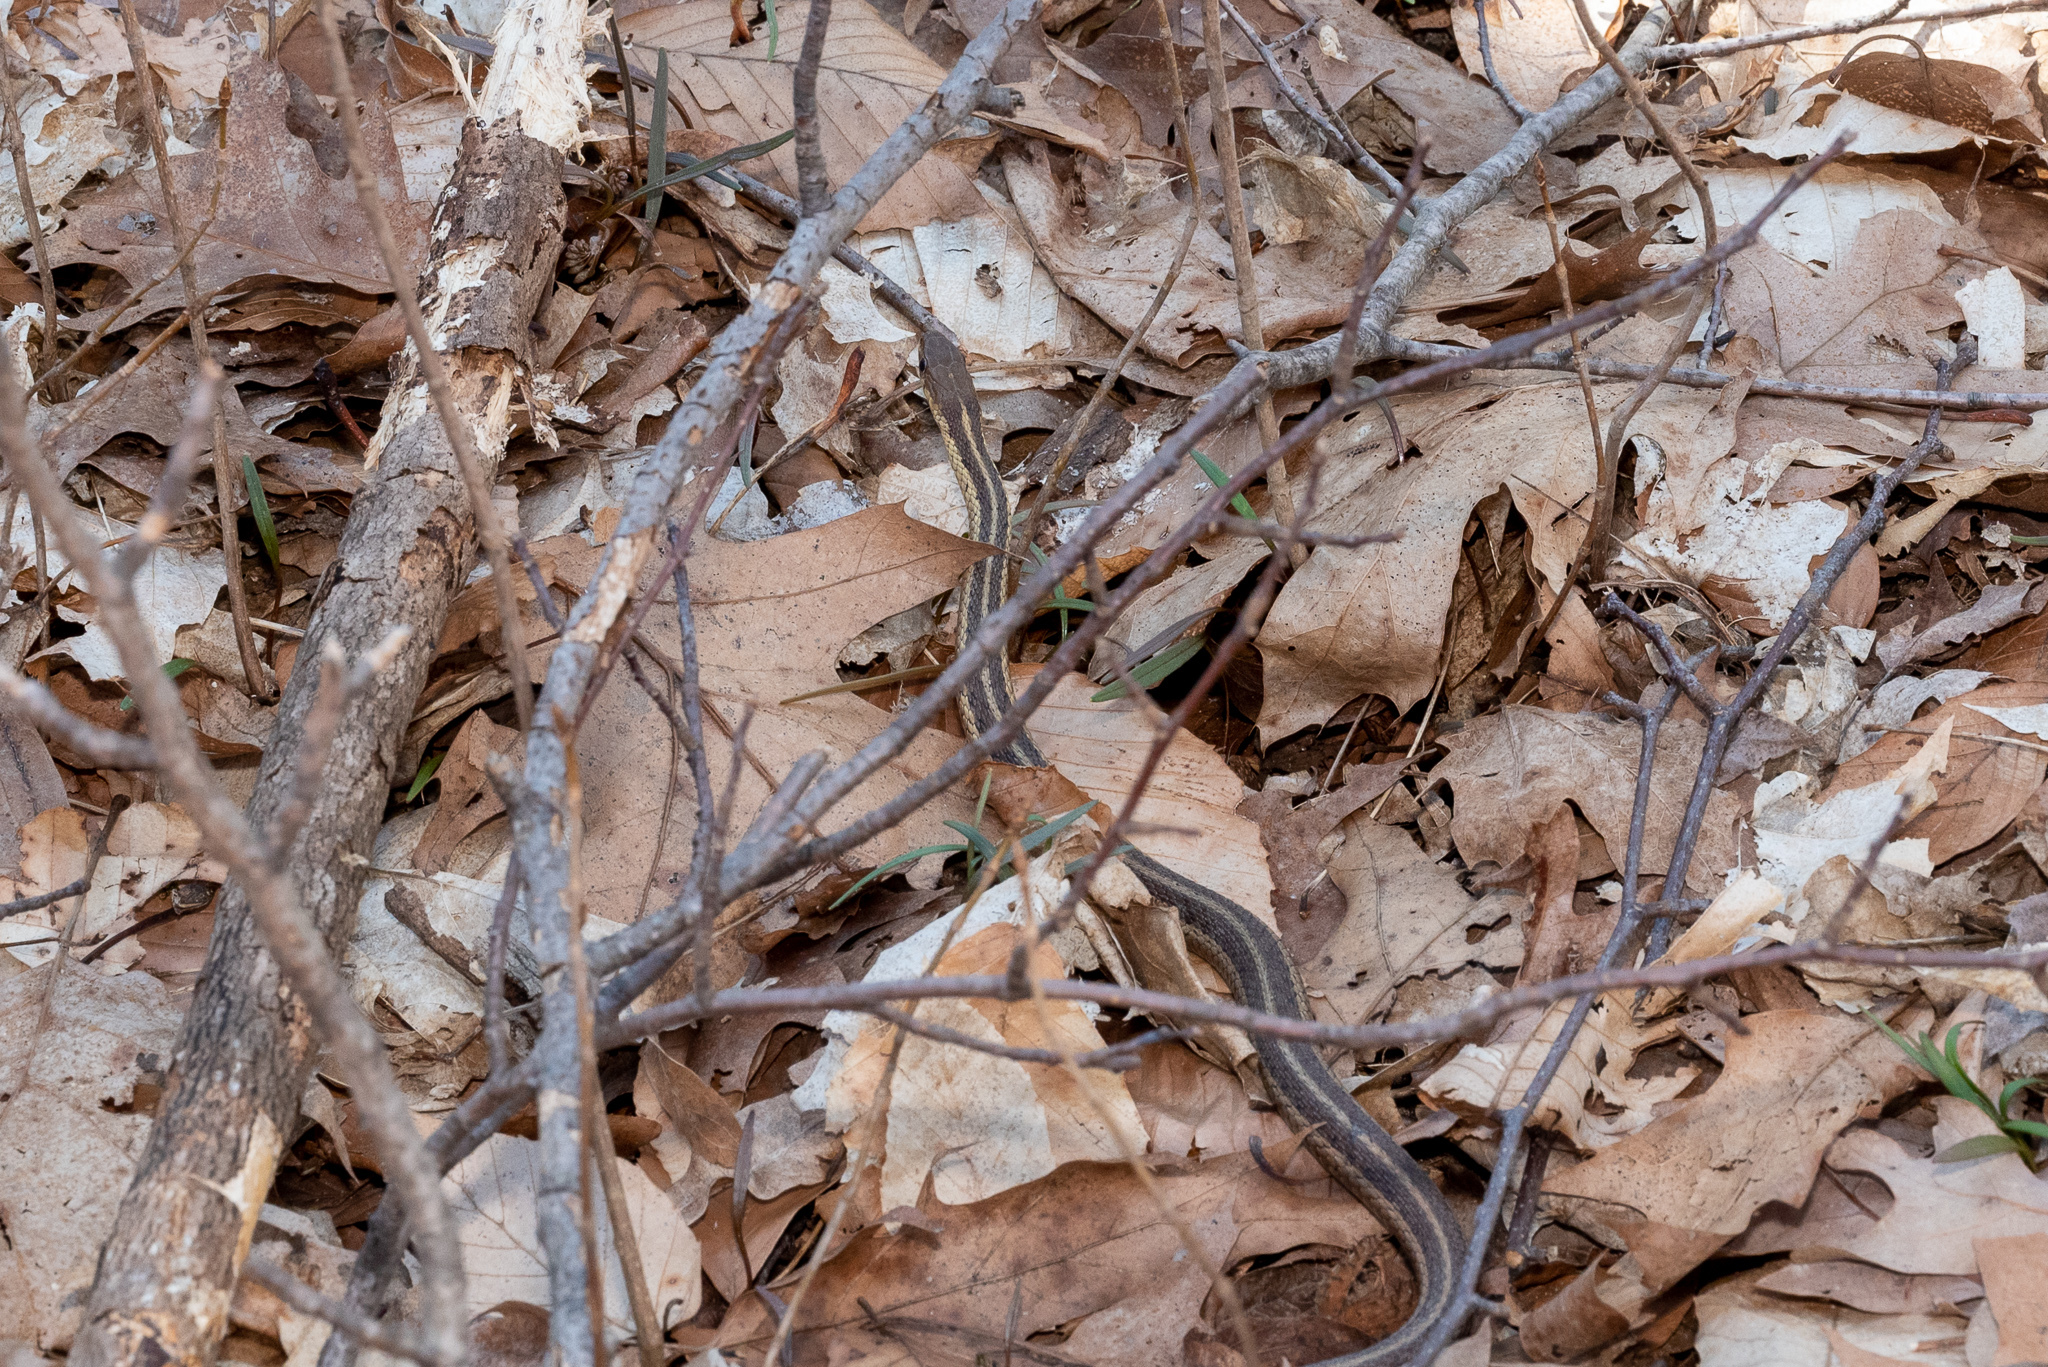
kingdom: Animalia
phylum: Chordata
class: Squamata
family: Colubridae
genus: Thamnophis
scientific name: Thamnophis sirtalis
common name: Common garter snake
